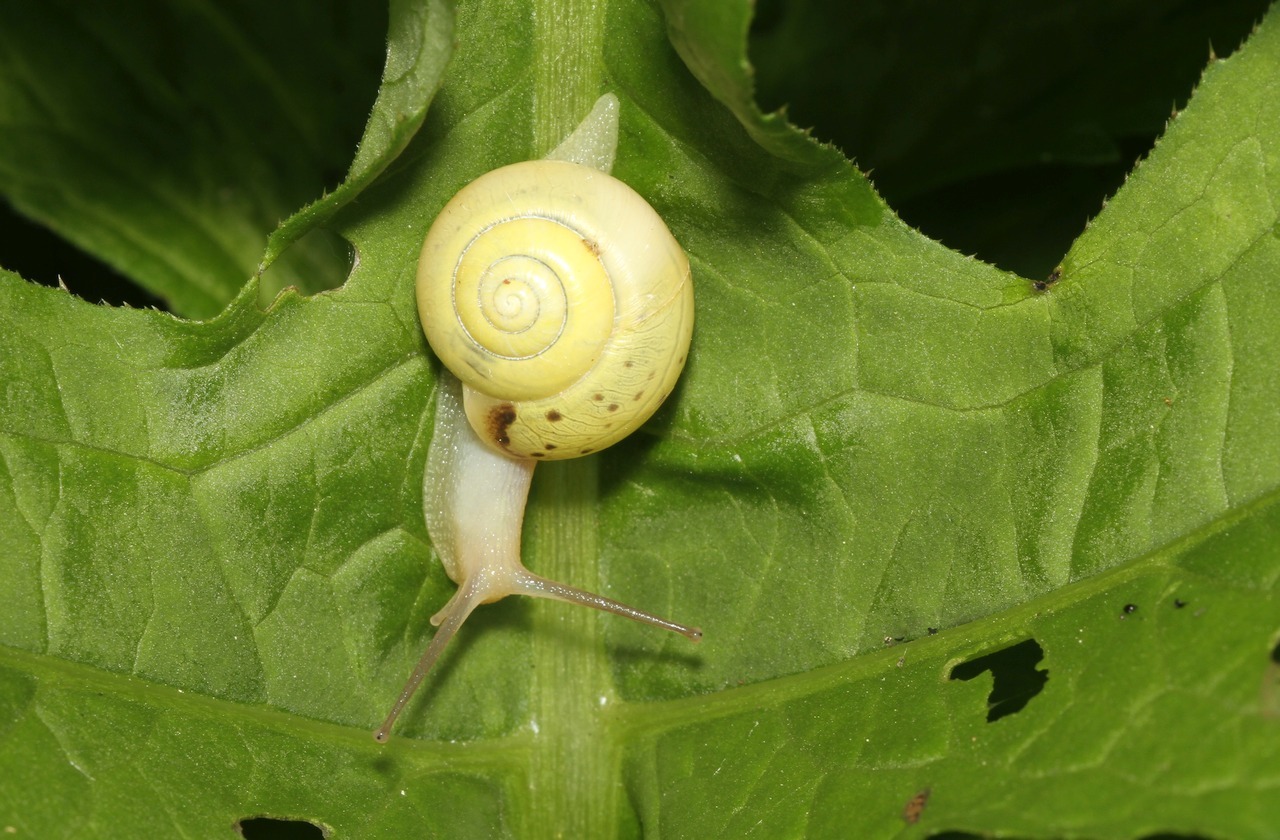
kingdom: Animalia
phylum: Mollusca
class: Gastropoda
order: Stylommatophora
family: Camaenidae
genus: Fruticicola
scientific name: Fruticicola fruticum
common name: Bush snail
